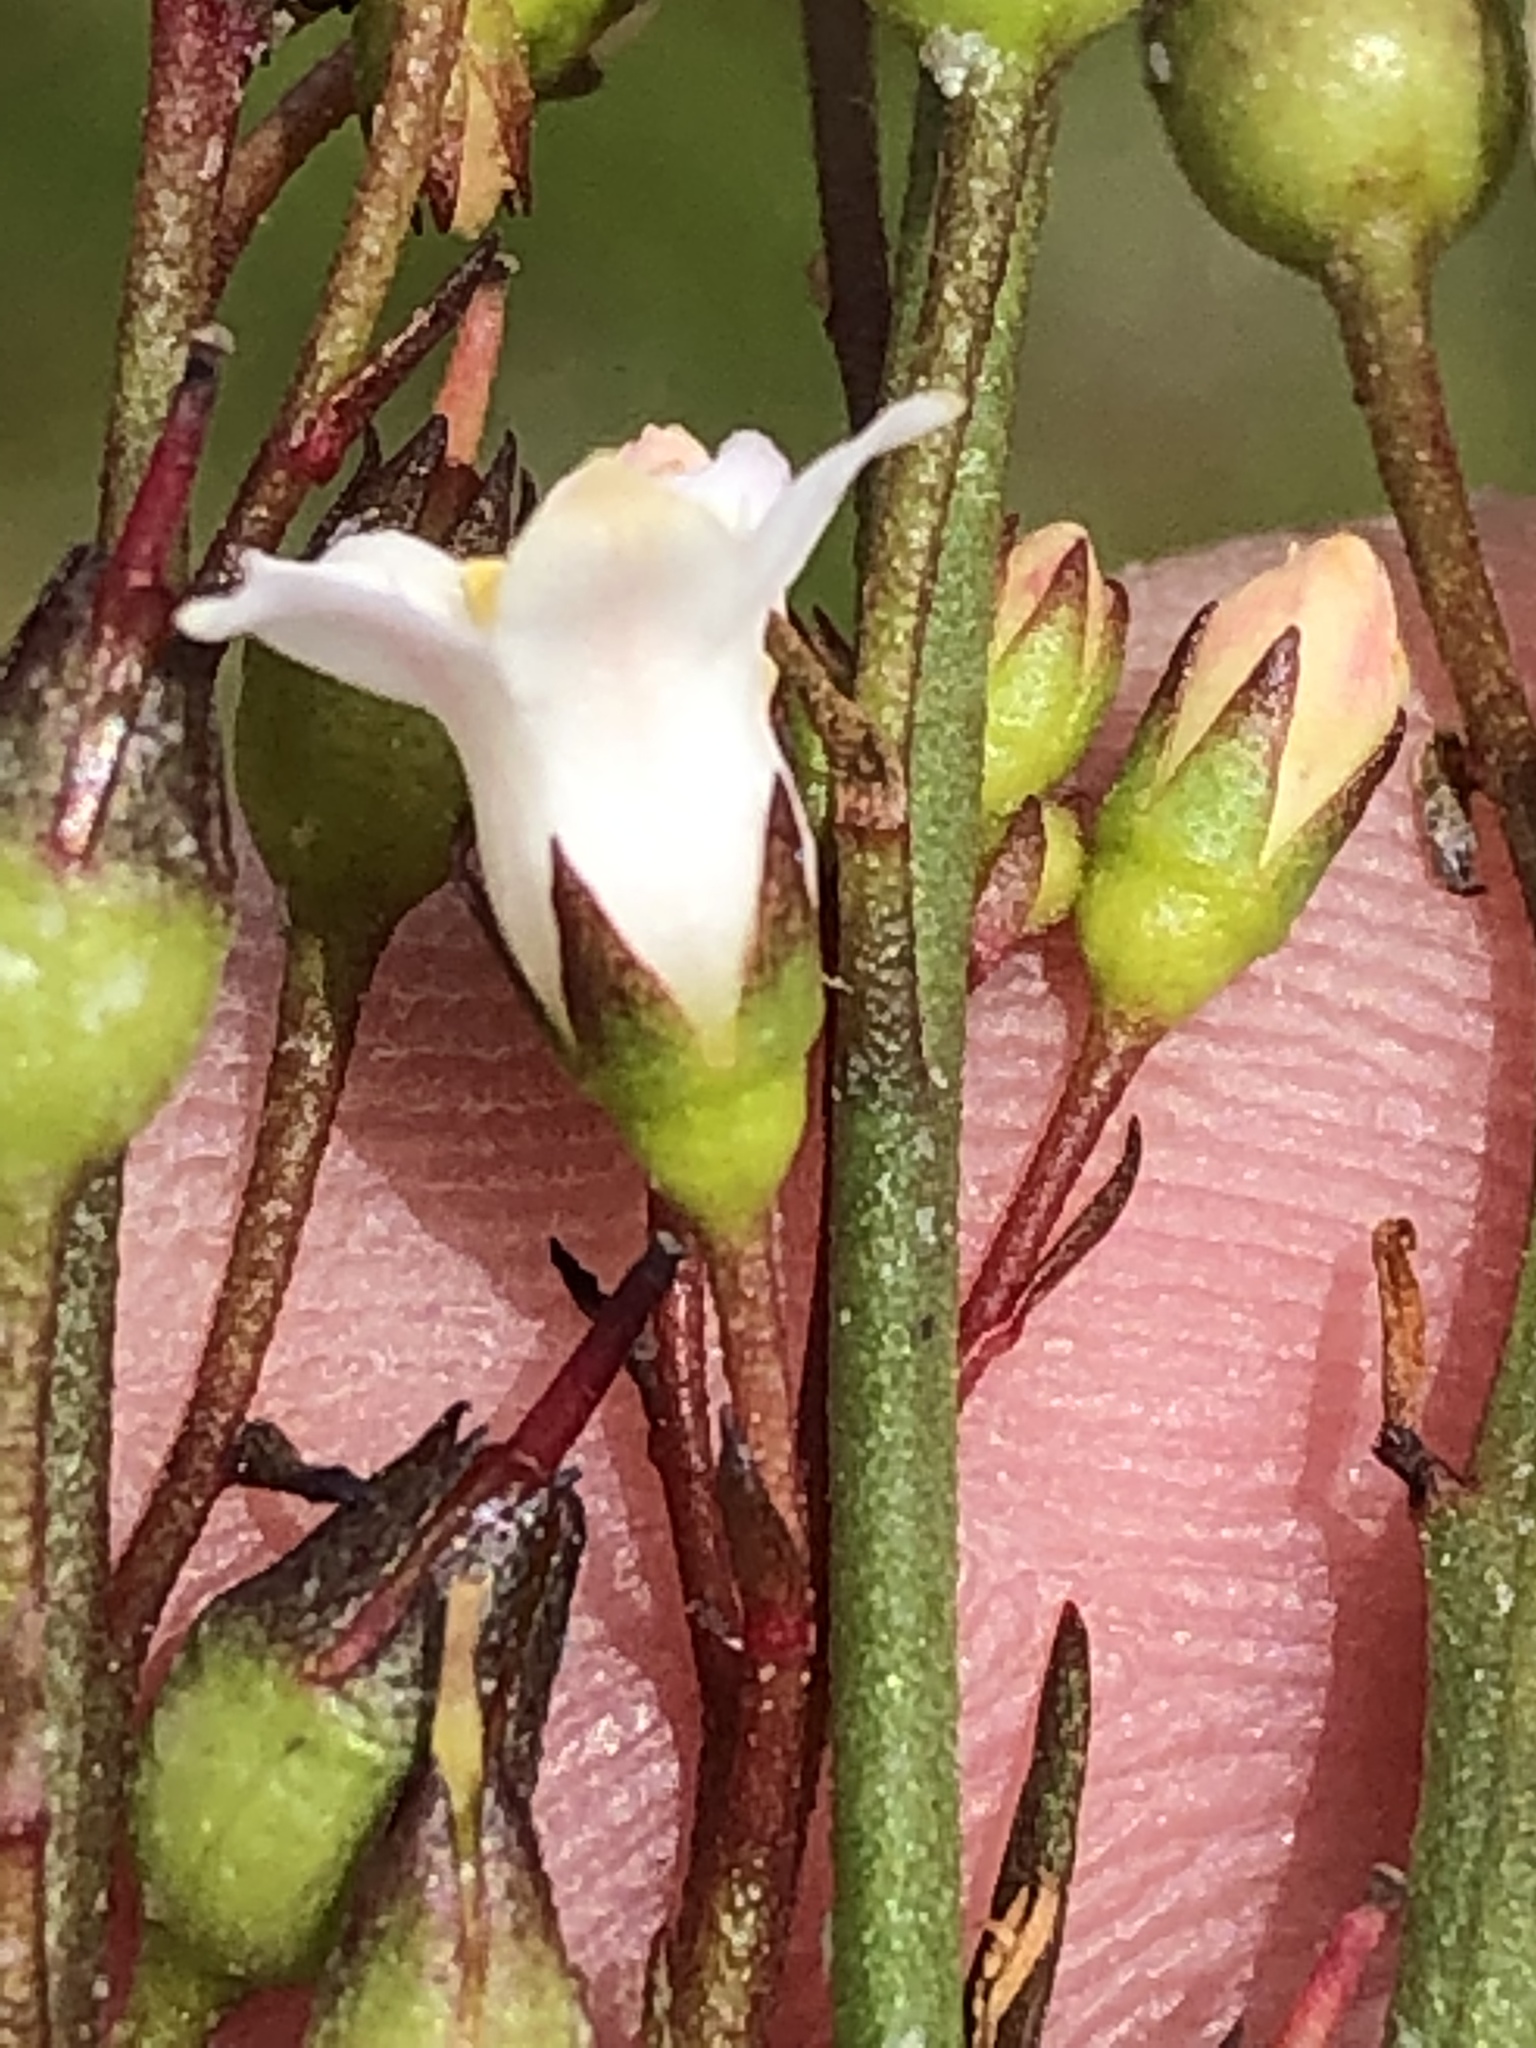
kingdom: Plantae
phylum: Tracheophyta
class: Magnoliopsida
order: Ericales
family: Primulaceae
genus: Samolus
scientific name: Samolus porosus
